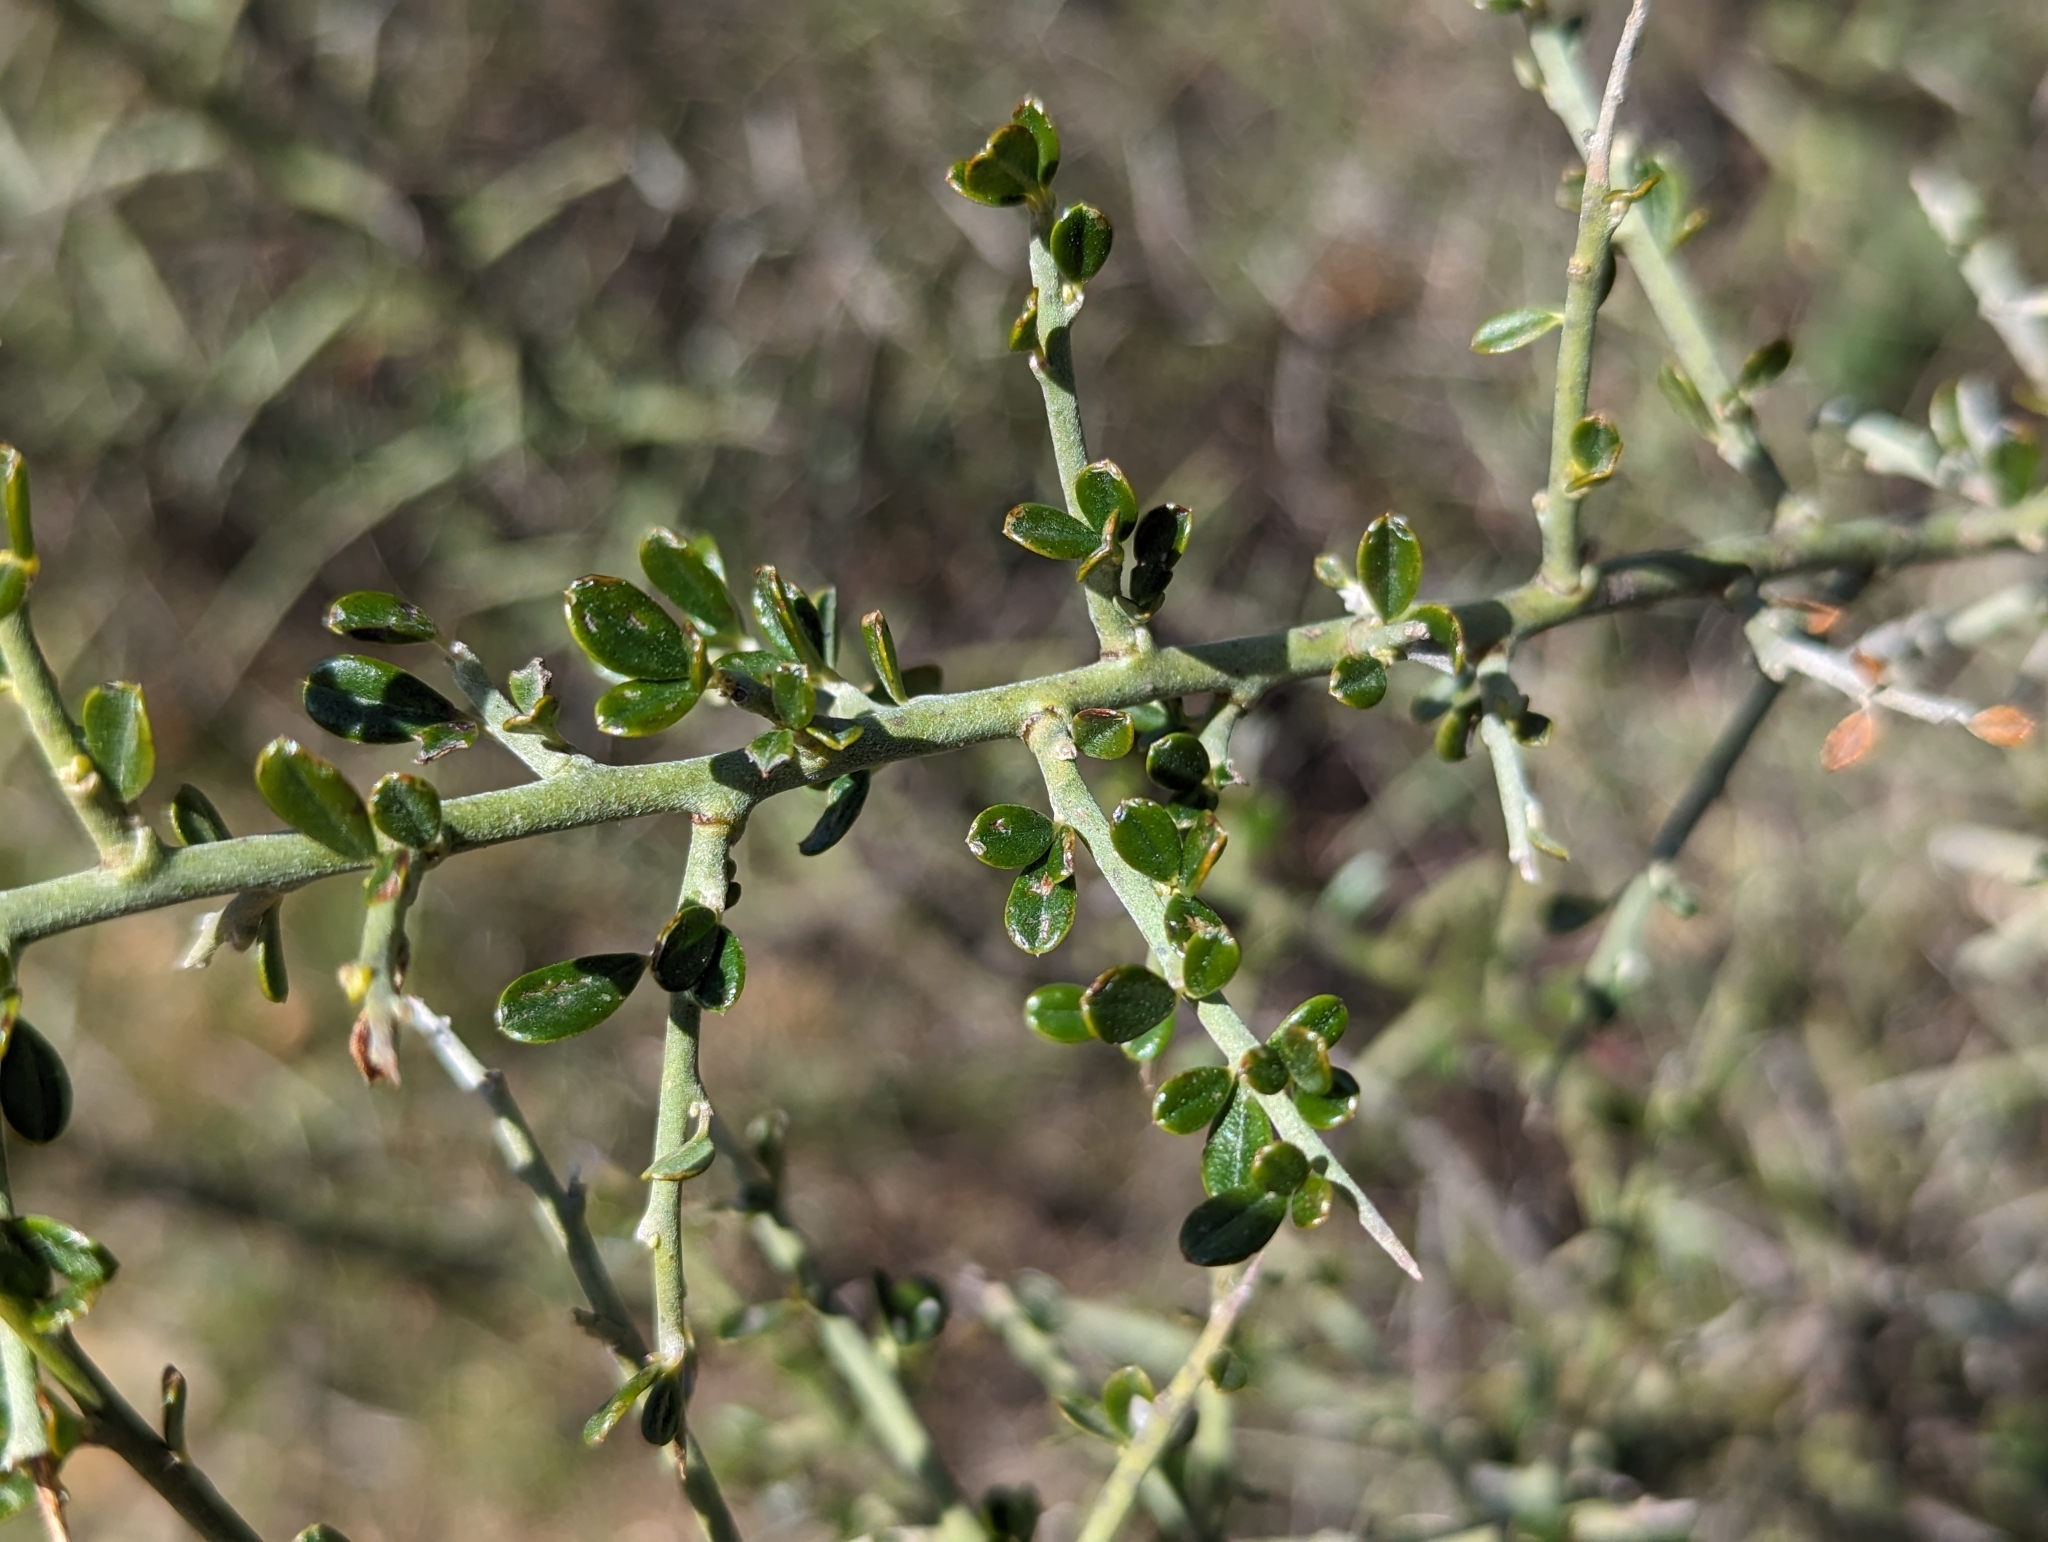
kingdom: Plantae
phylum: Tracheophyta
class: Magnoliopsida
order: Fabales
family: Fabaceae
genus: Pickeringia
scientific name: Pickeringia montana
